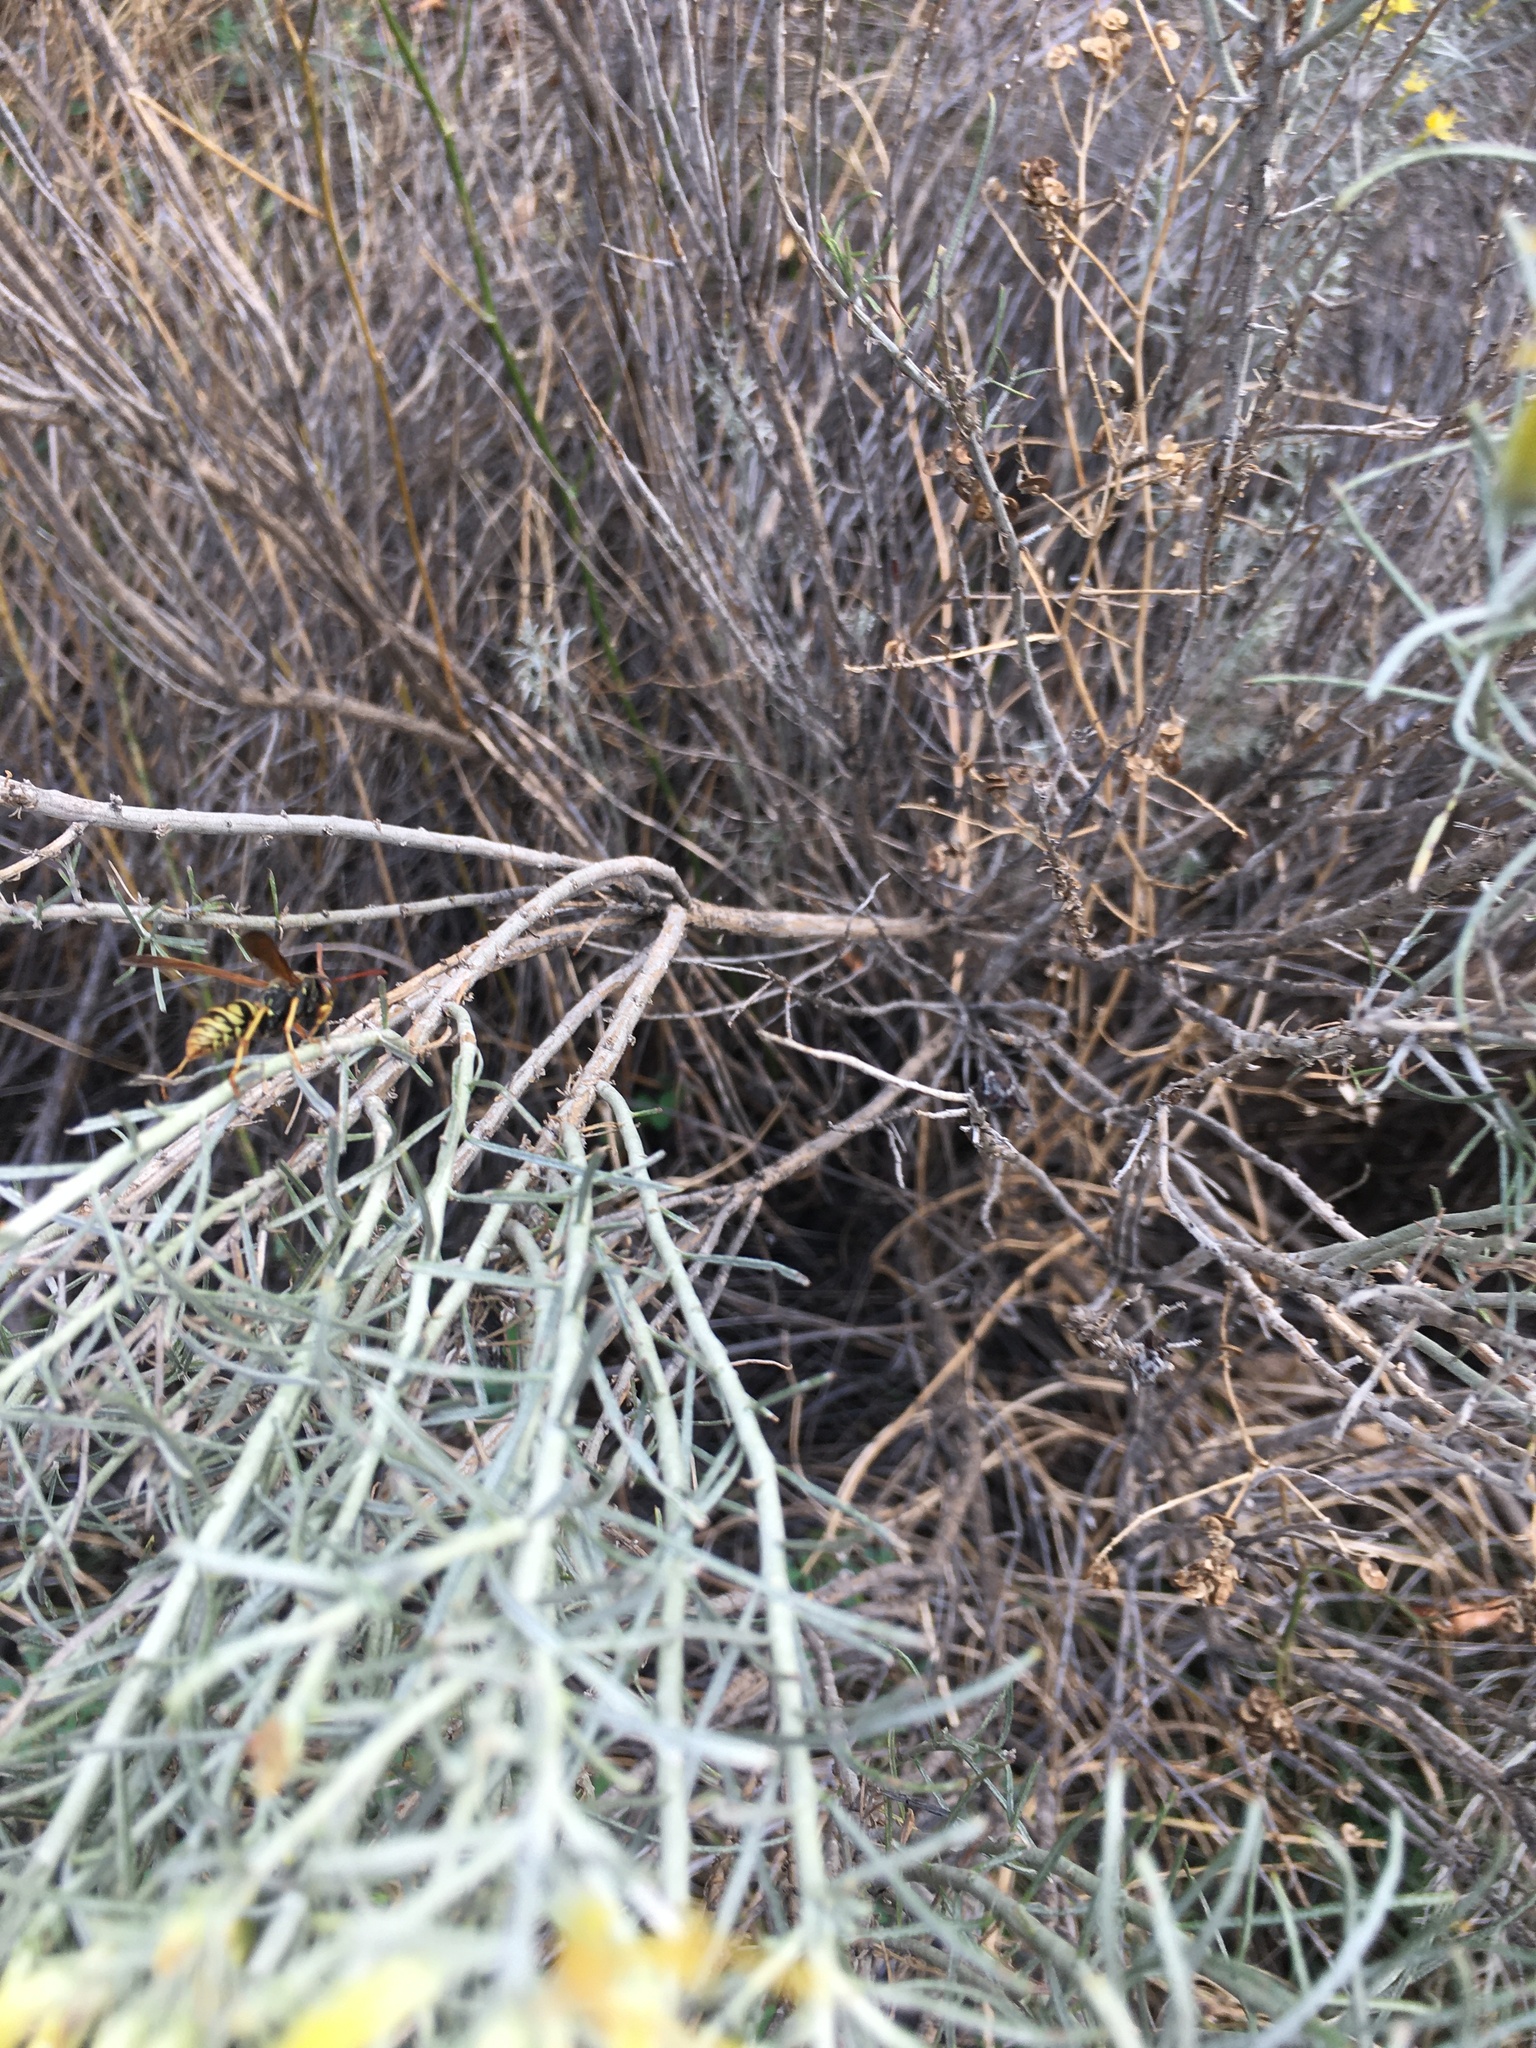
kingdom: Animalia
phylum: Arthropoda
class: Insecta
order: Hymenoptera
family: Eumenidae
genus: Polistes
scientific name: Polistes aurifer
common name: Paper wasp
